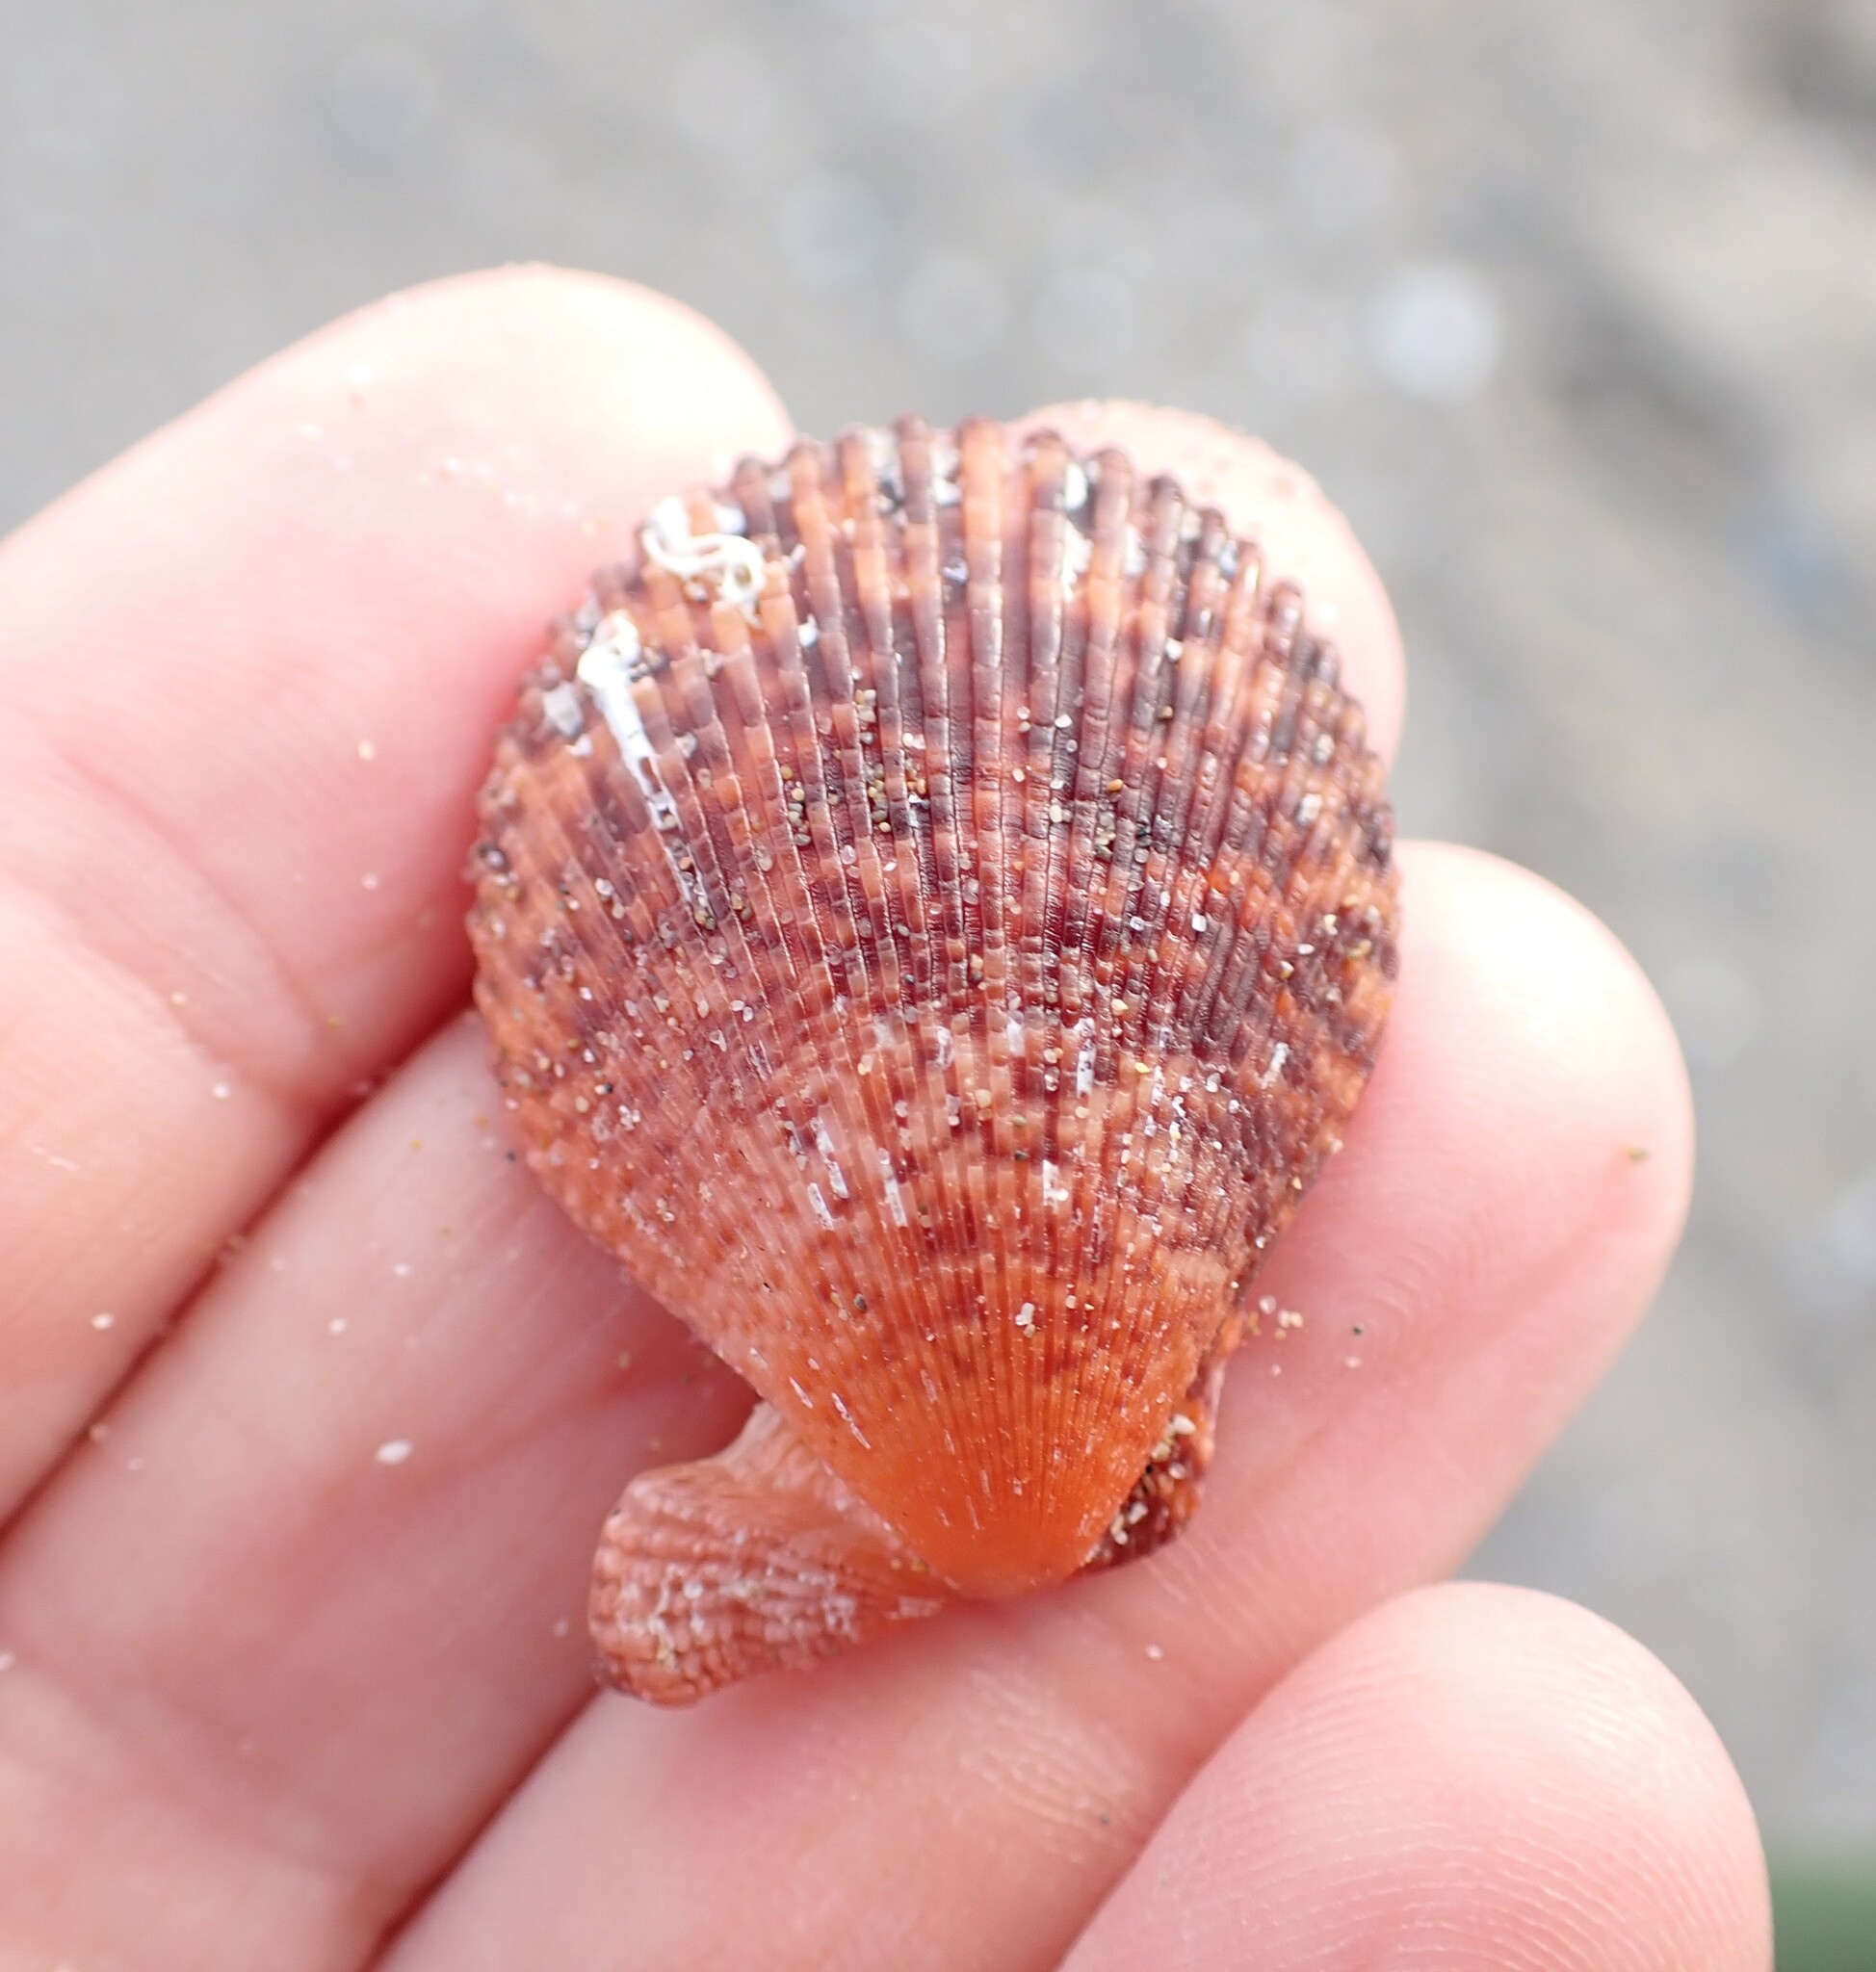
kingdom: Animalia
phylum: Mollusca
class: Bivalvia
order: Pectinida
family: Pectinidae
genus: Mimachlamys
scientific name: Mimachlamys varia
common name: Variegated scallop
